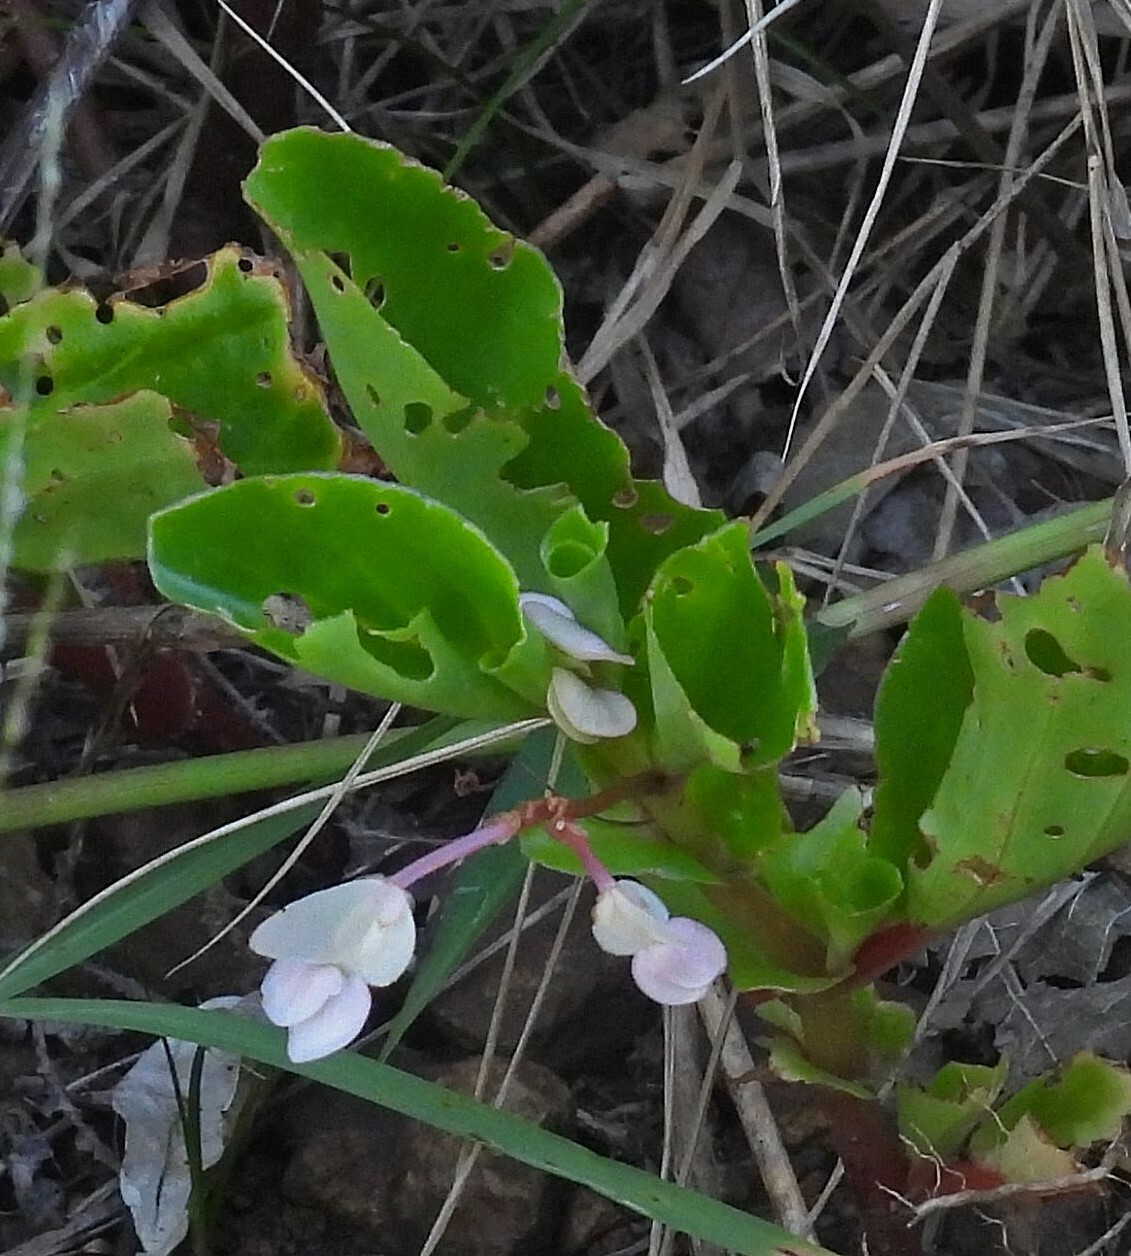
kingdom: Plantae
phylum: Tracheophyta
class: Magnoliopsida
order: Cucurbitales
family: Begoniaceae
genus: Begonia
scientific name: Begonia cucullata
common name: Clubbed begonia
